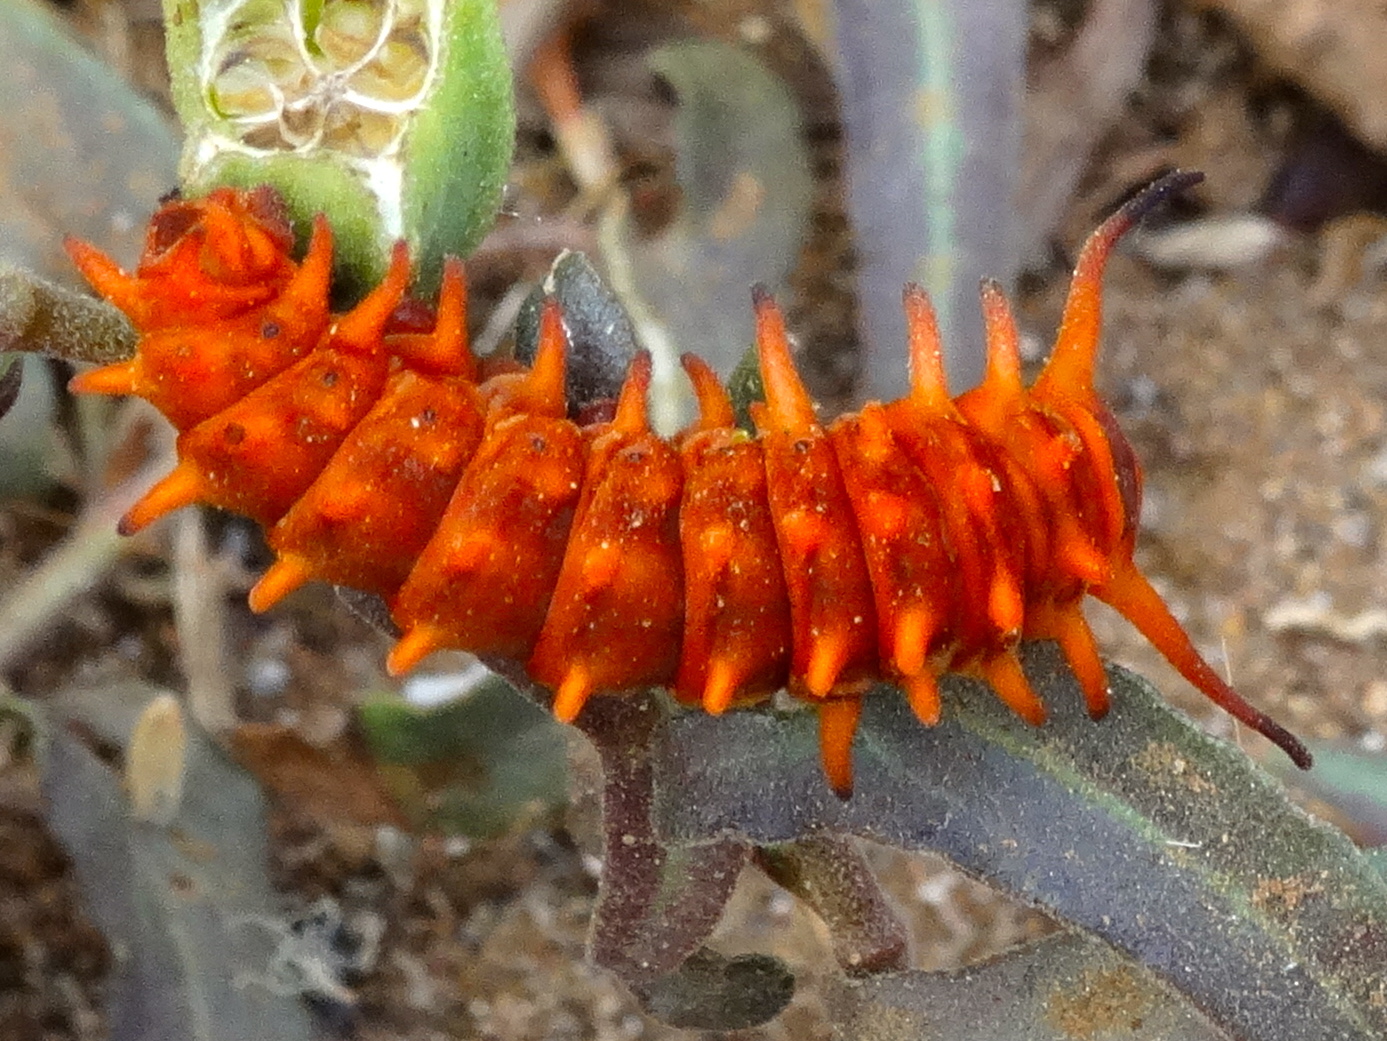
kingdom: Animalia
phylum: Arthropoda
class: Insecta
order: Lepidoptera
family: Papilionidae
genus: Battus
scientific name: Battus philenor
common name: Pipevine swallowtail
